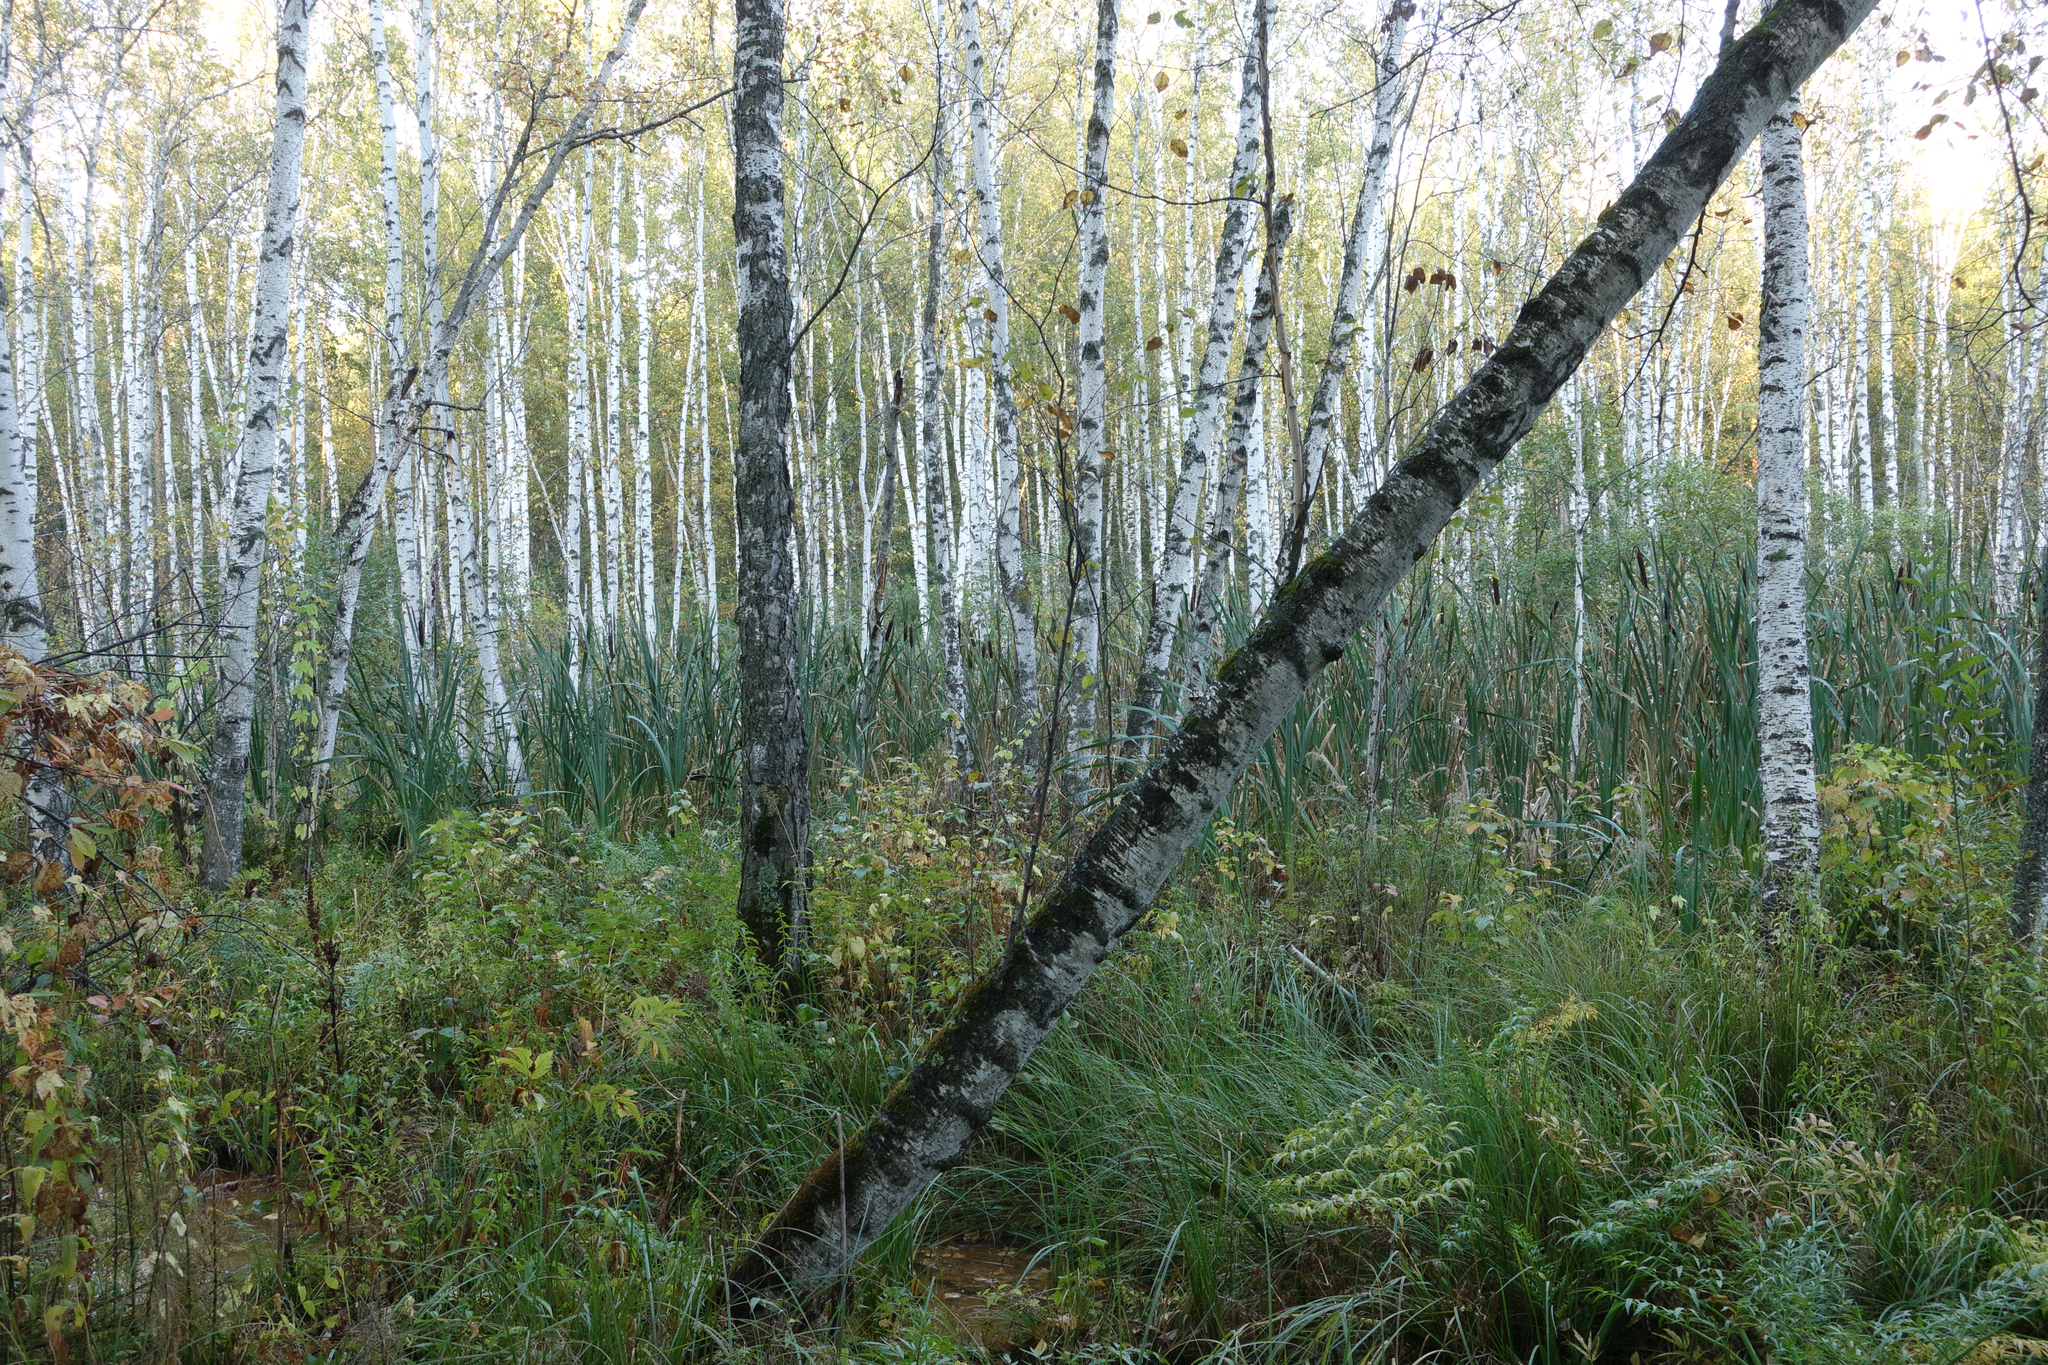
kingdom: Plantae
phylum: Tracheophyta
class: Magnoliopsida
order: Fagales
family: Betulaceae
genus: Betula
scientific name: Betula pubescens
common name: Downy birch
